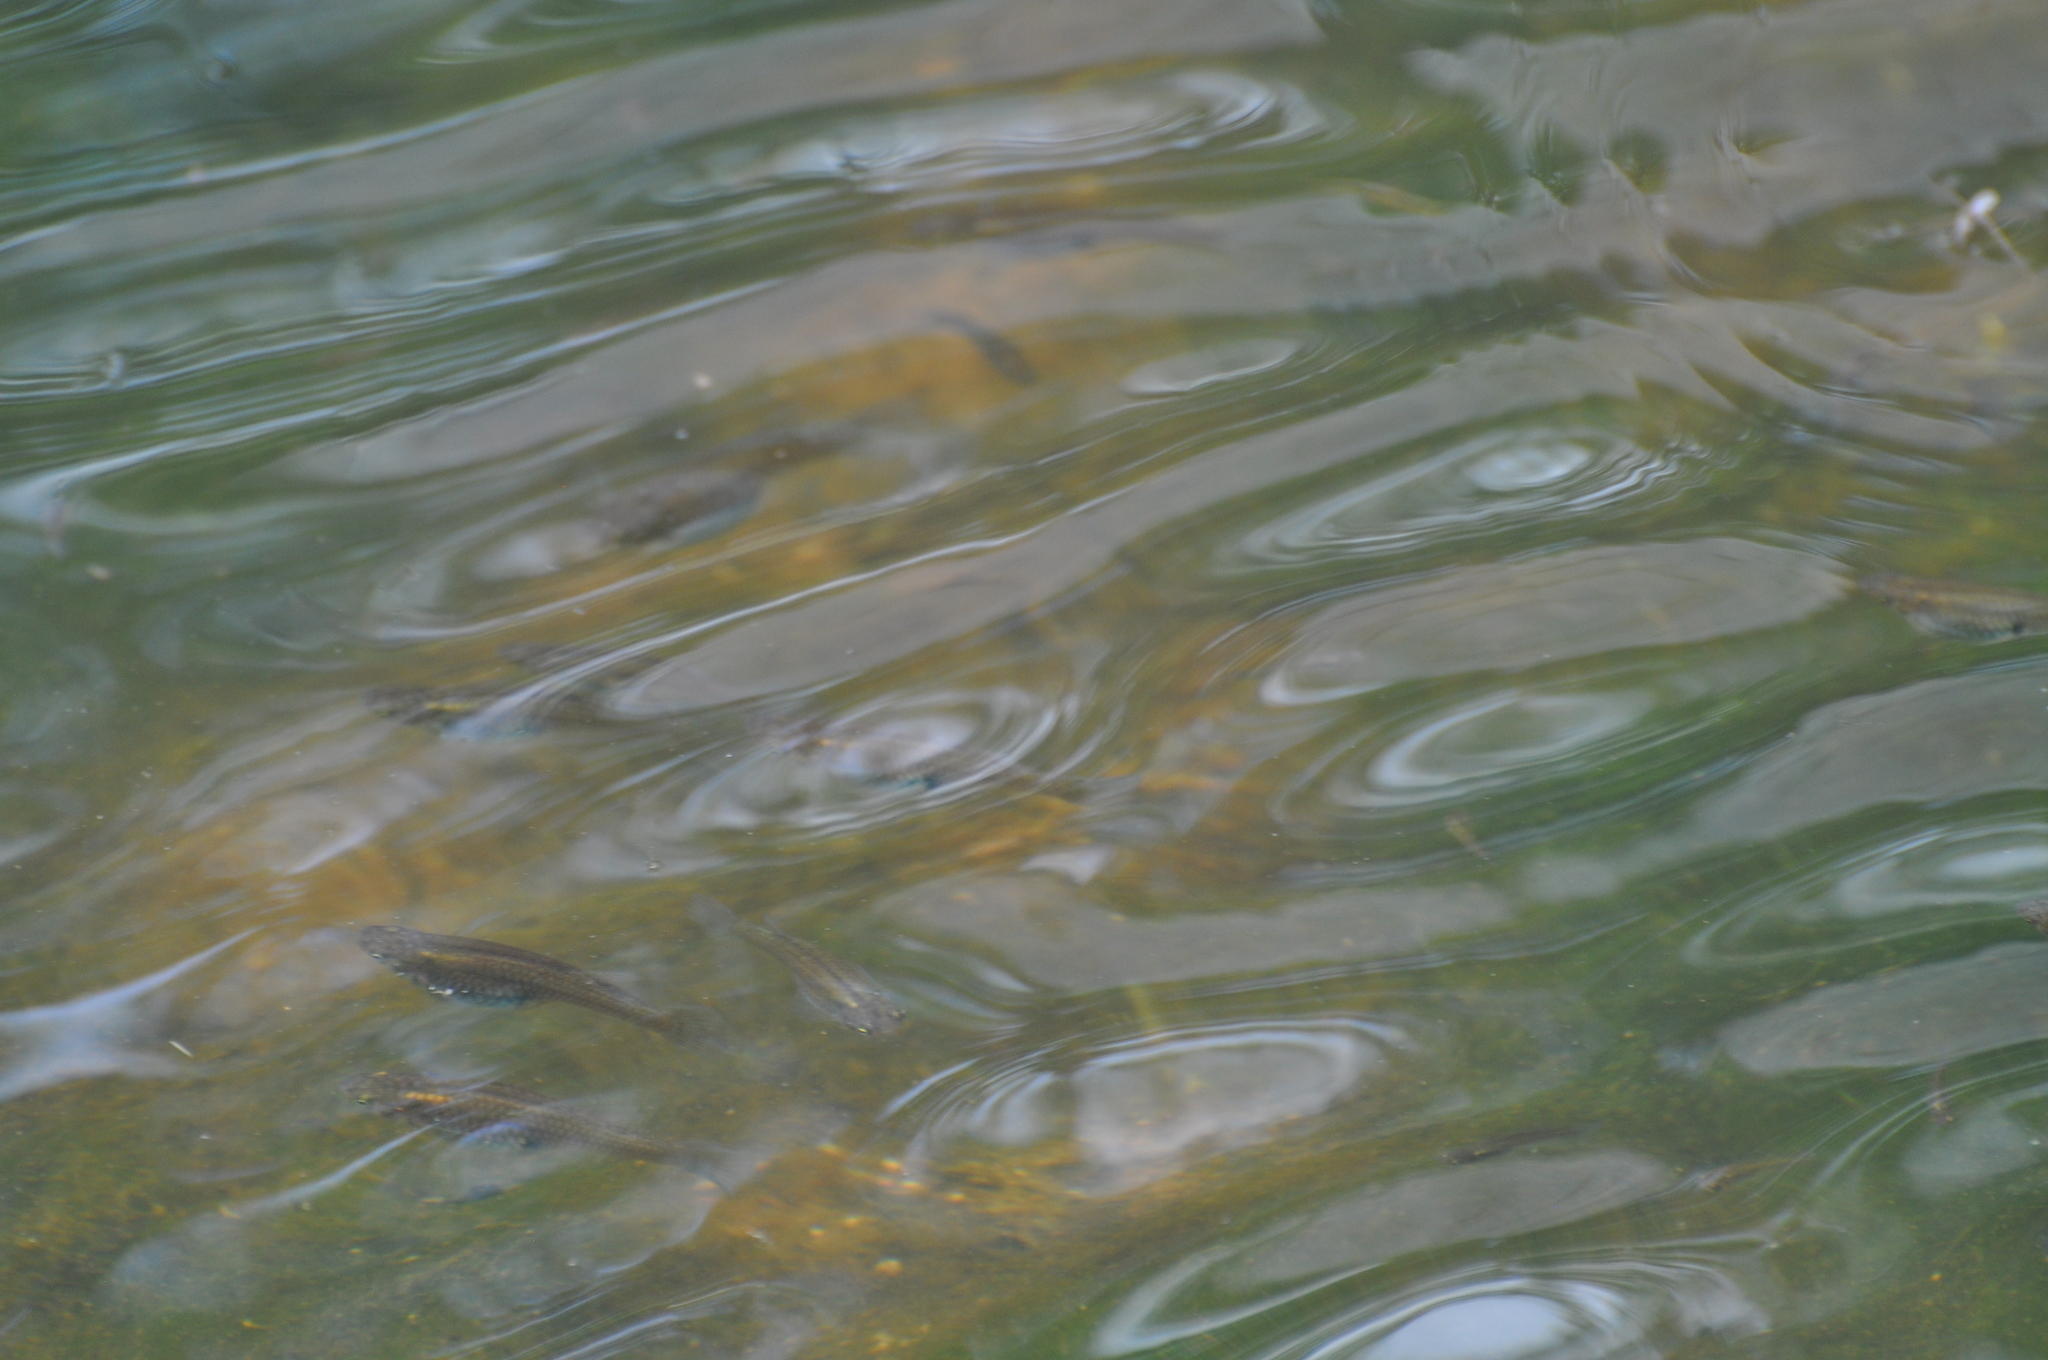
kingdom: Animalia
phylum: Chordata
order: Cyprinodontiformes
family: Poeciliidae
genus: Gambusia
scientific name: Gambusia affinis
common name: Mosquitofish
